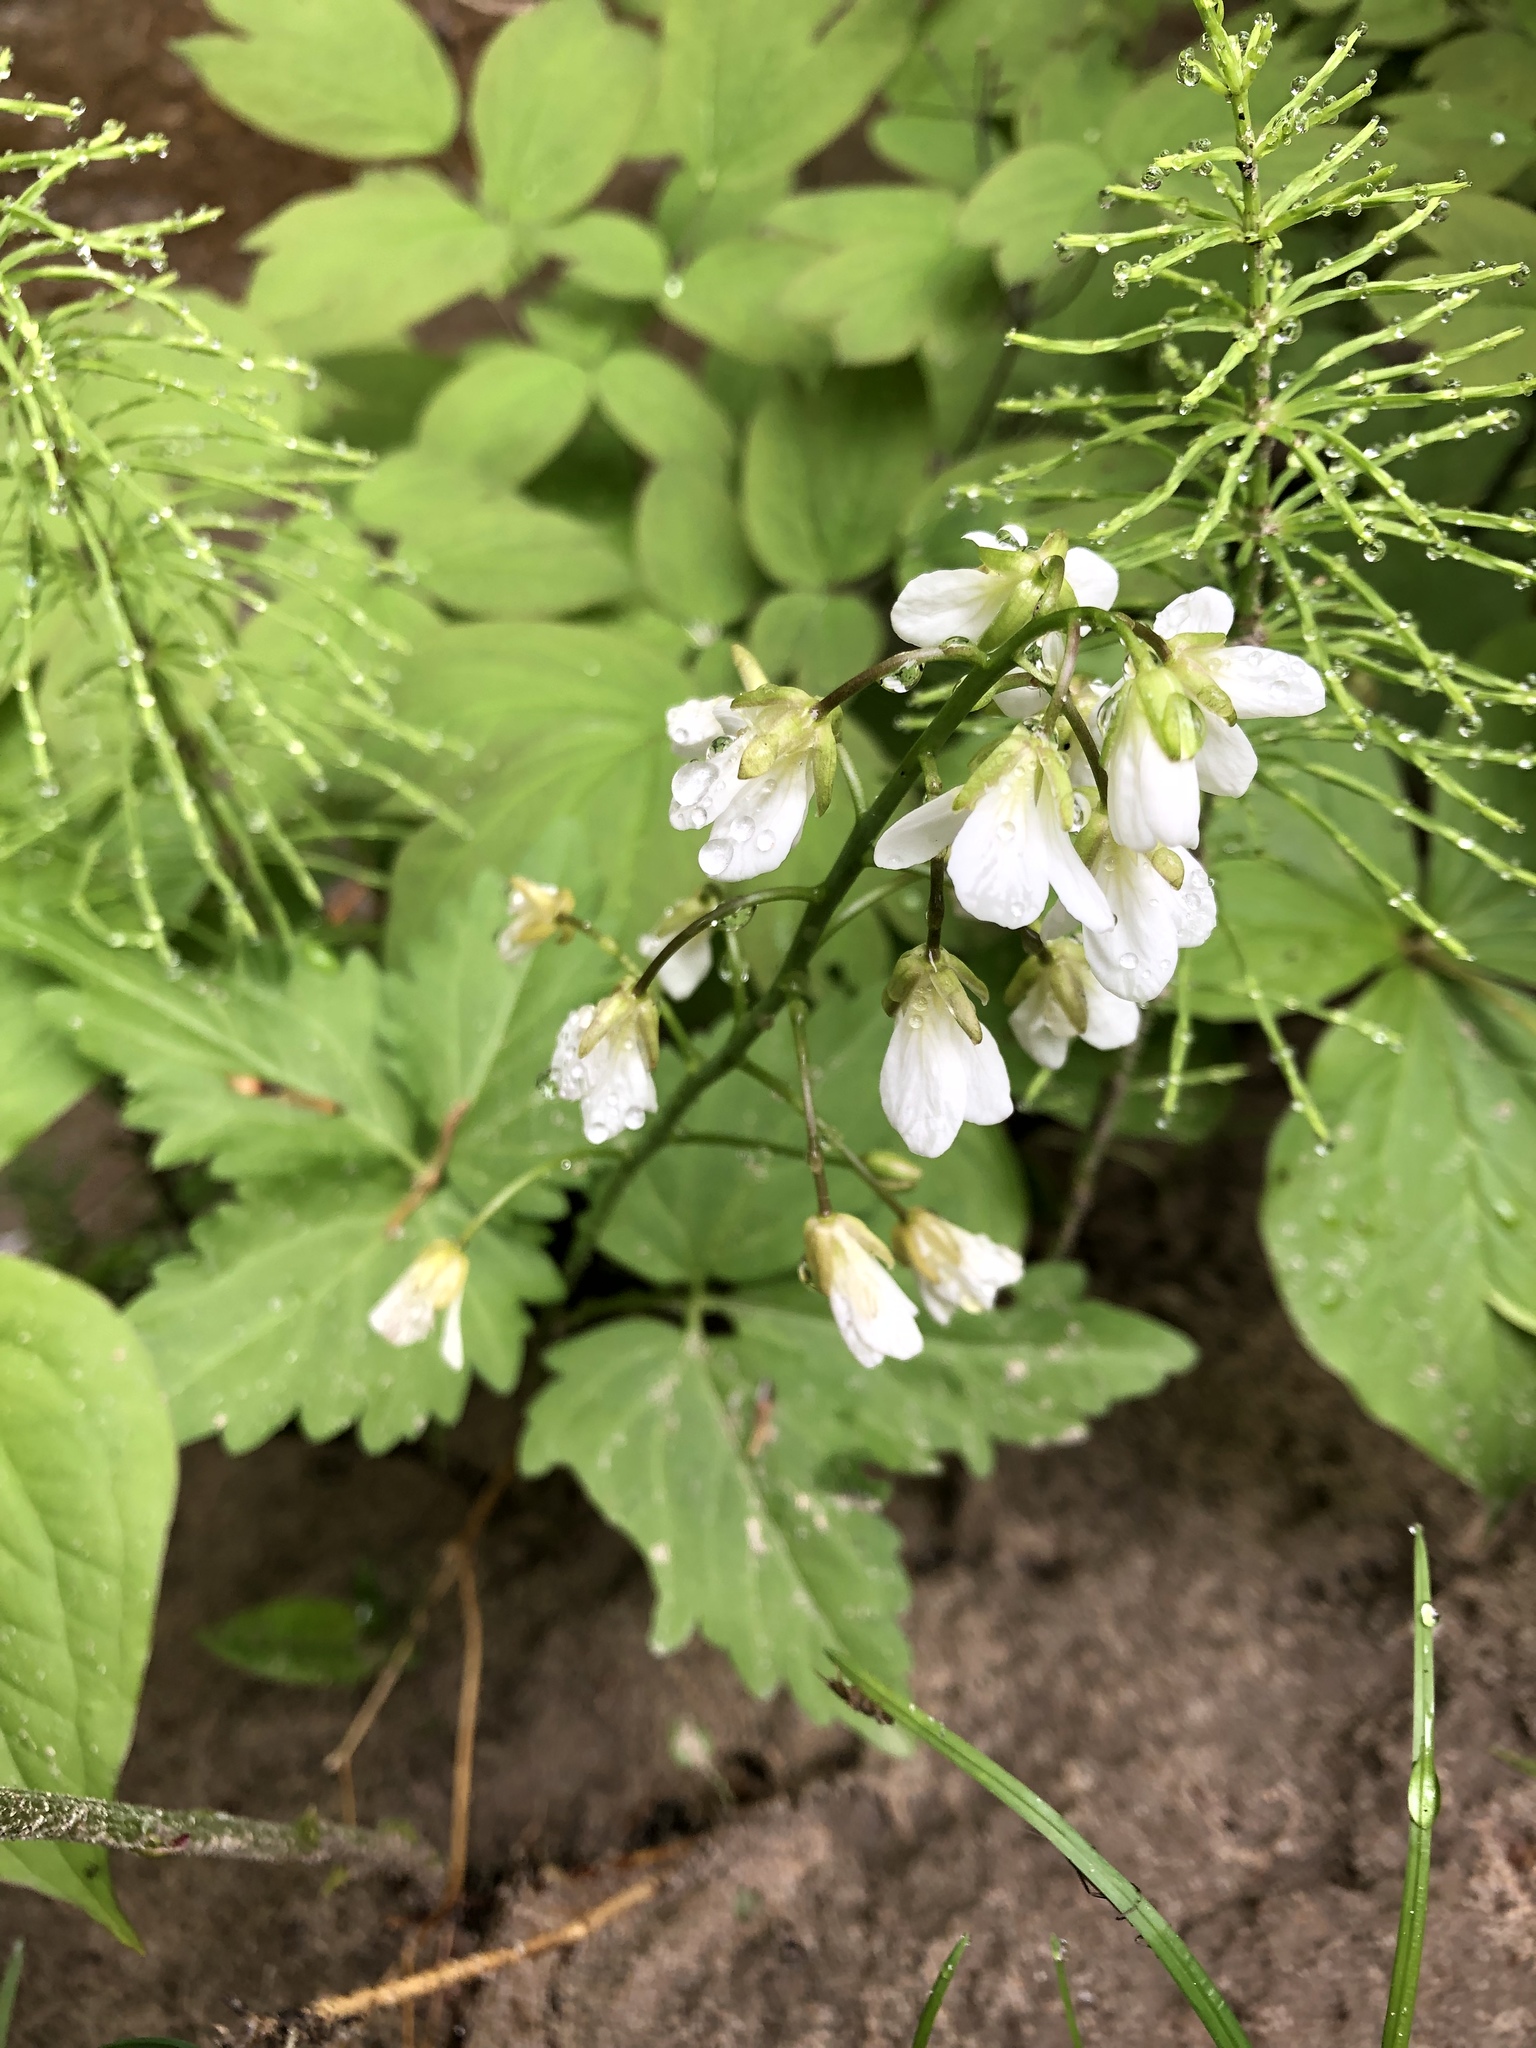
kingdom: Plantae
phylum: Tracheophyta
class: Magnoliopsida
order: Brassicales
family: Brassicaceae
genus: Cardamine
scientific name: Cardamine diphylla
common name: Broad-leaved toothwort
